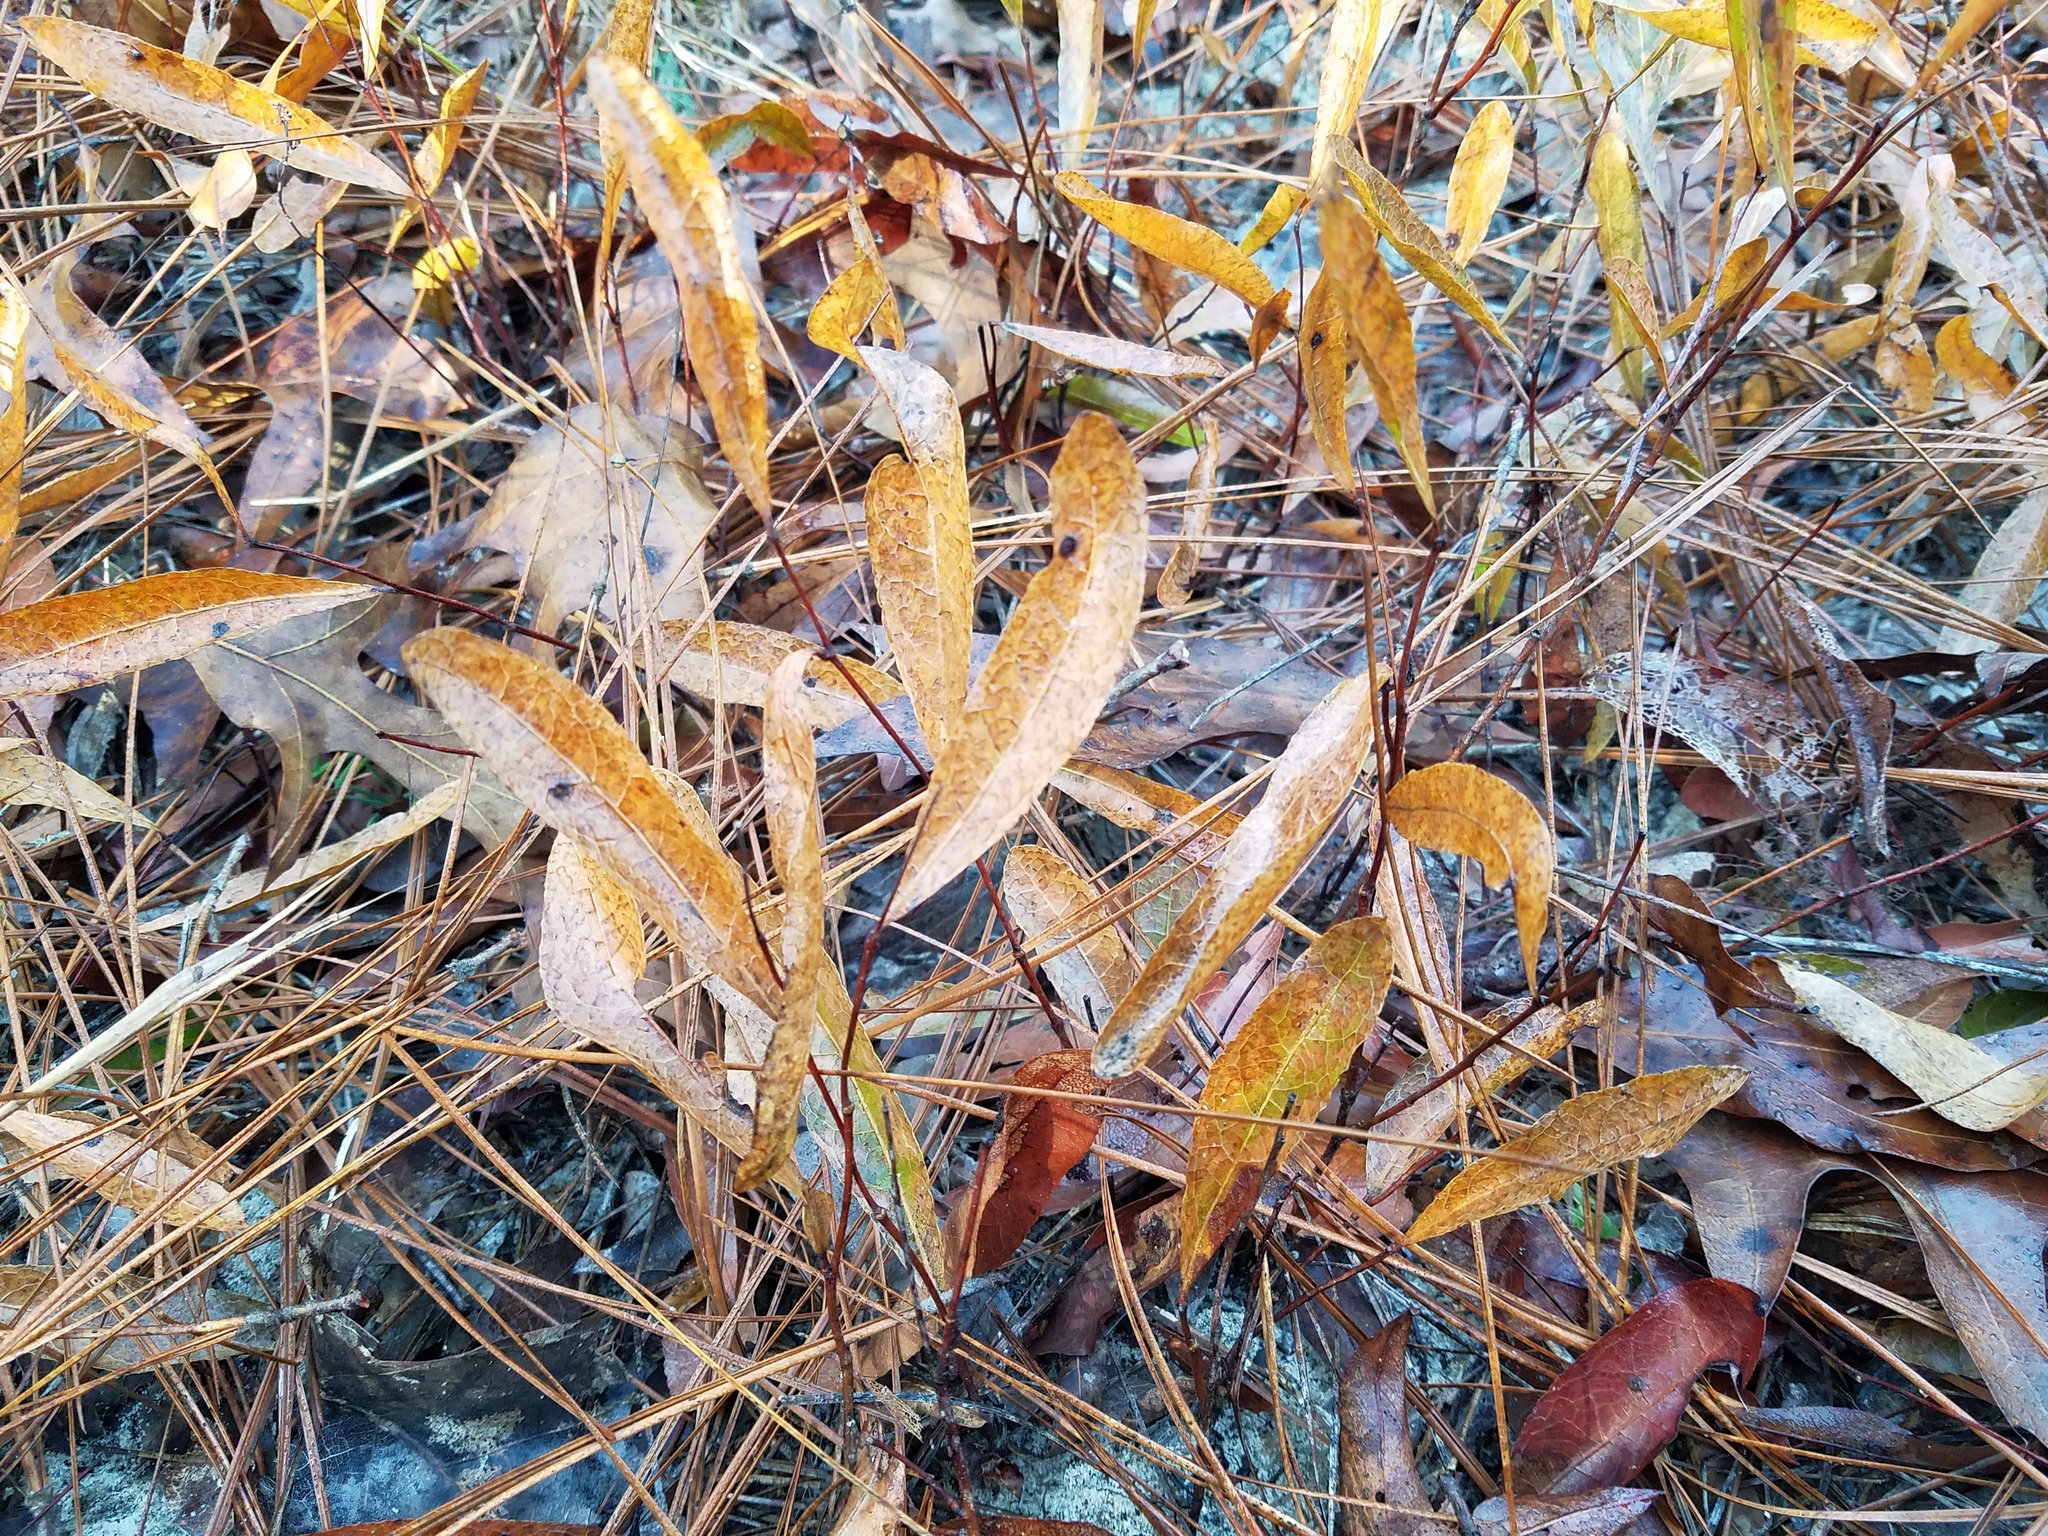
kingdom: Plantae
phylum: Tracheophyta
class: Magnoliopsida
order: Malpighiales
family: Chrysobalanaceae
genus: Geobalanus
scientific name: Geobalanus oblongifolius
